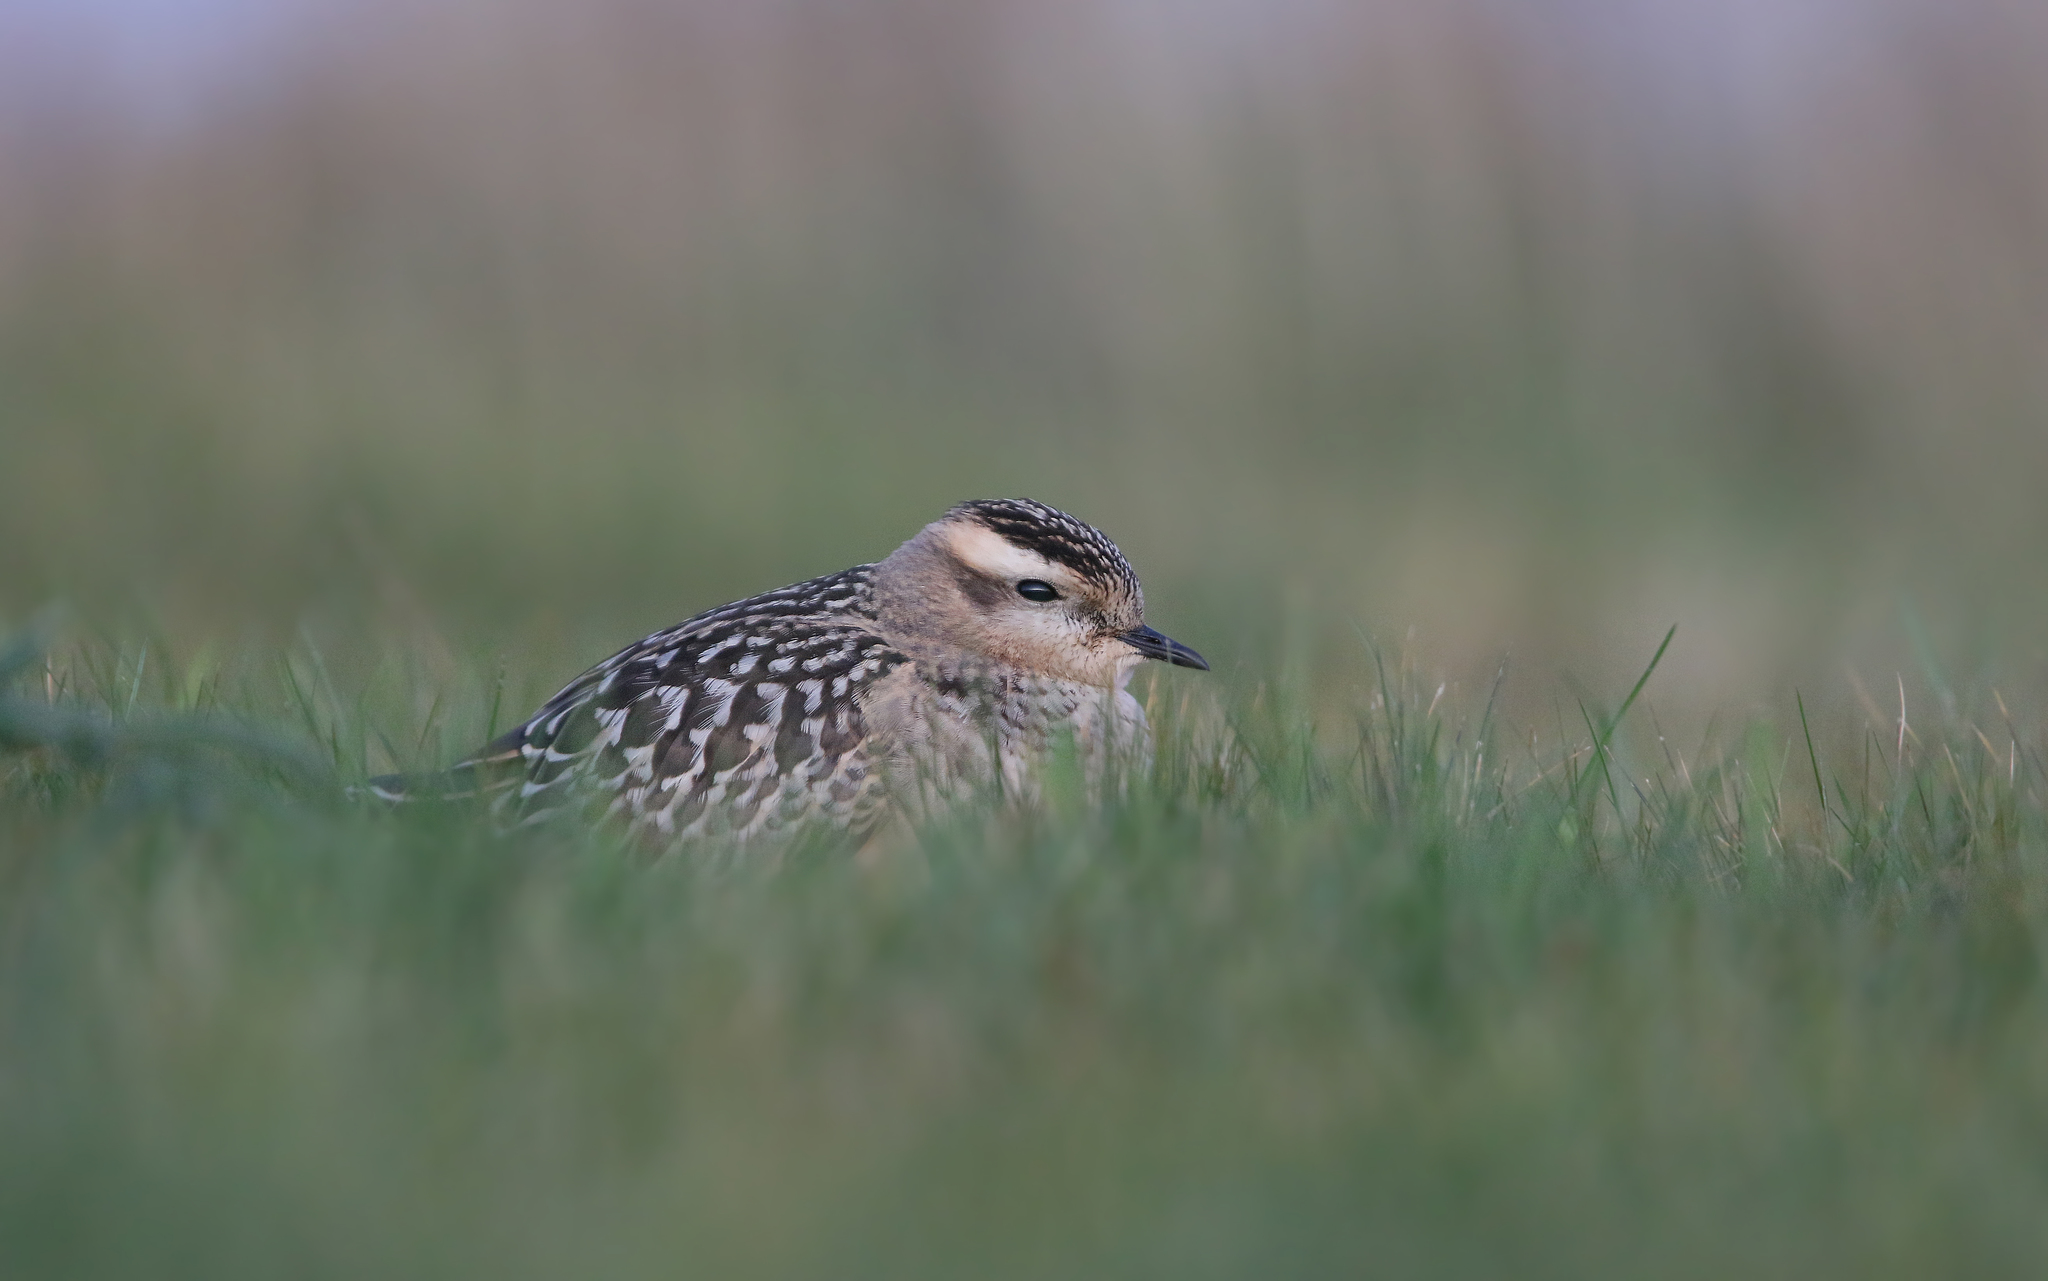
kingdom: Animalia
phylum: Chordata
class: Aves
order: Charadriiformes
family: Charadriidae
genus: Charadrius
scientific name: Charadrius morinellus
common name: Eurasian dotterel
